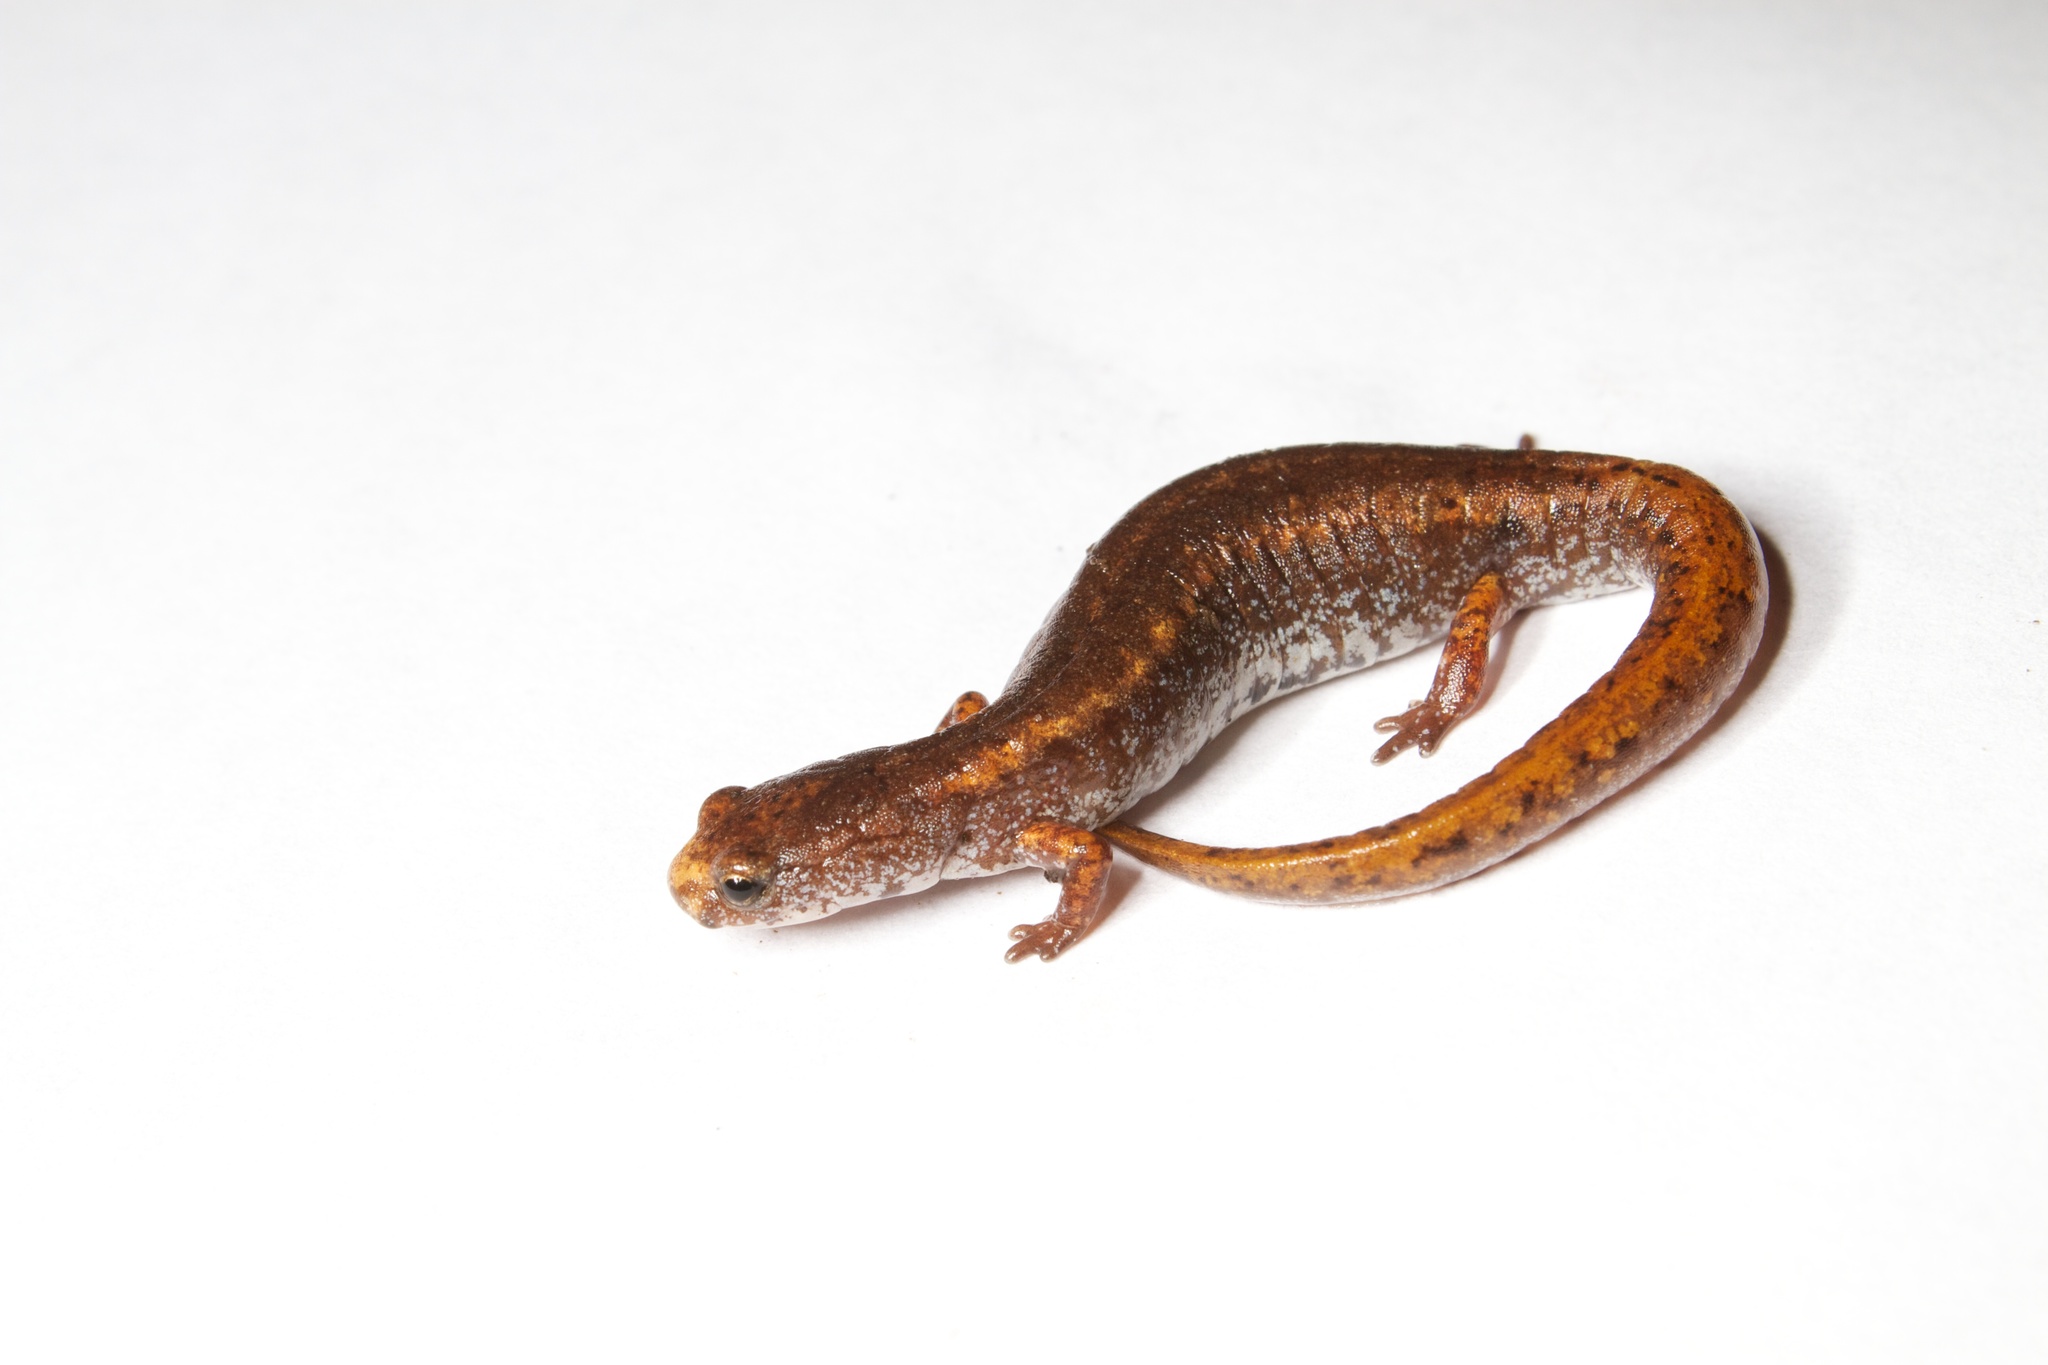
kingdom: Animalia
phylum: Chordata
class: Amphibia
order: Caudata
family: Plethodontidae
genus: Hemidactylium
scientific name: Hemidactylium scutatum
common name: Four-toed salamander
